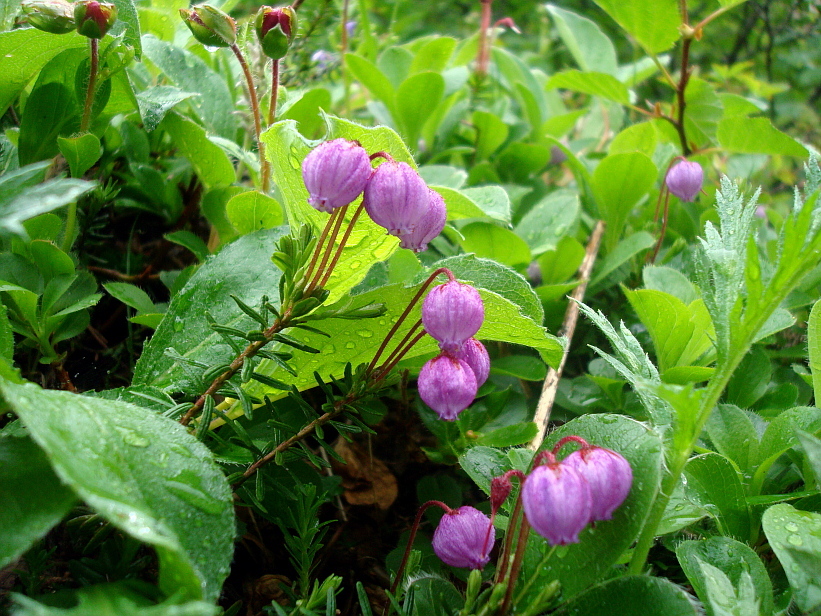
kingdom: Plantae
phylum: Tracheophyta
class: Magnoliopsida
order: Ericales
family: Ericaceae
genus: Phyllodoce
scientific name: Phyllodoce caerulea
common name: Blue heath
